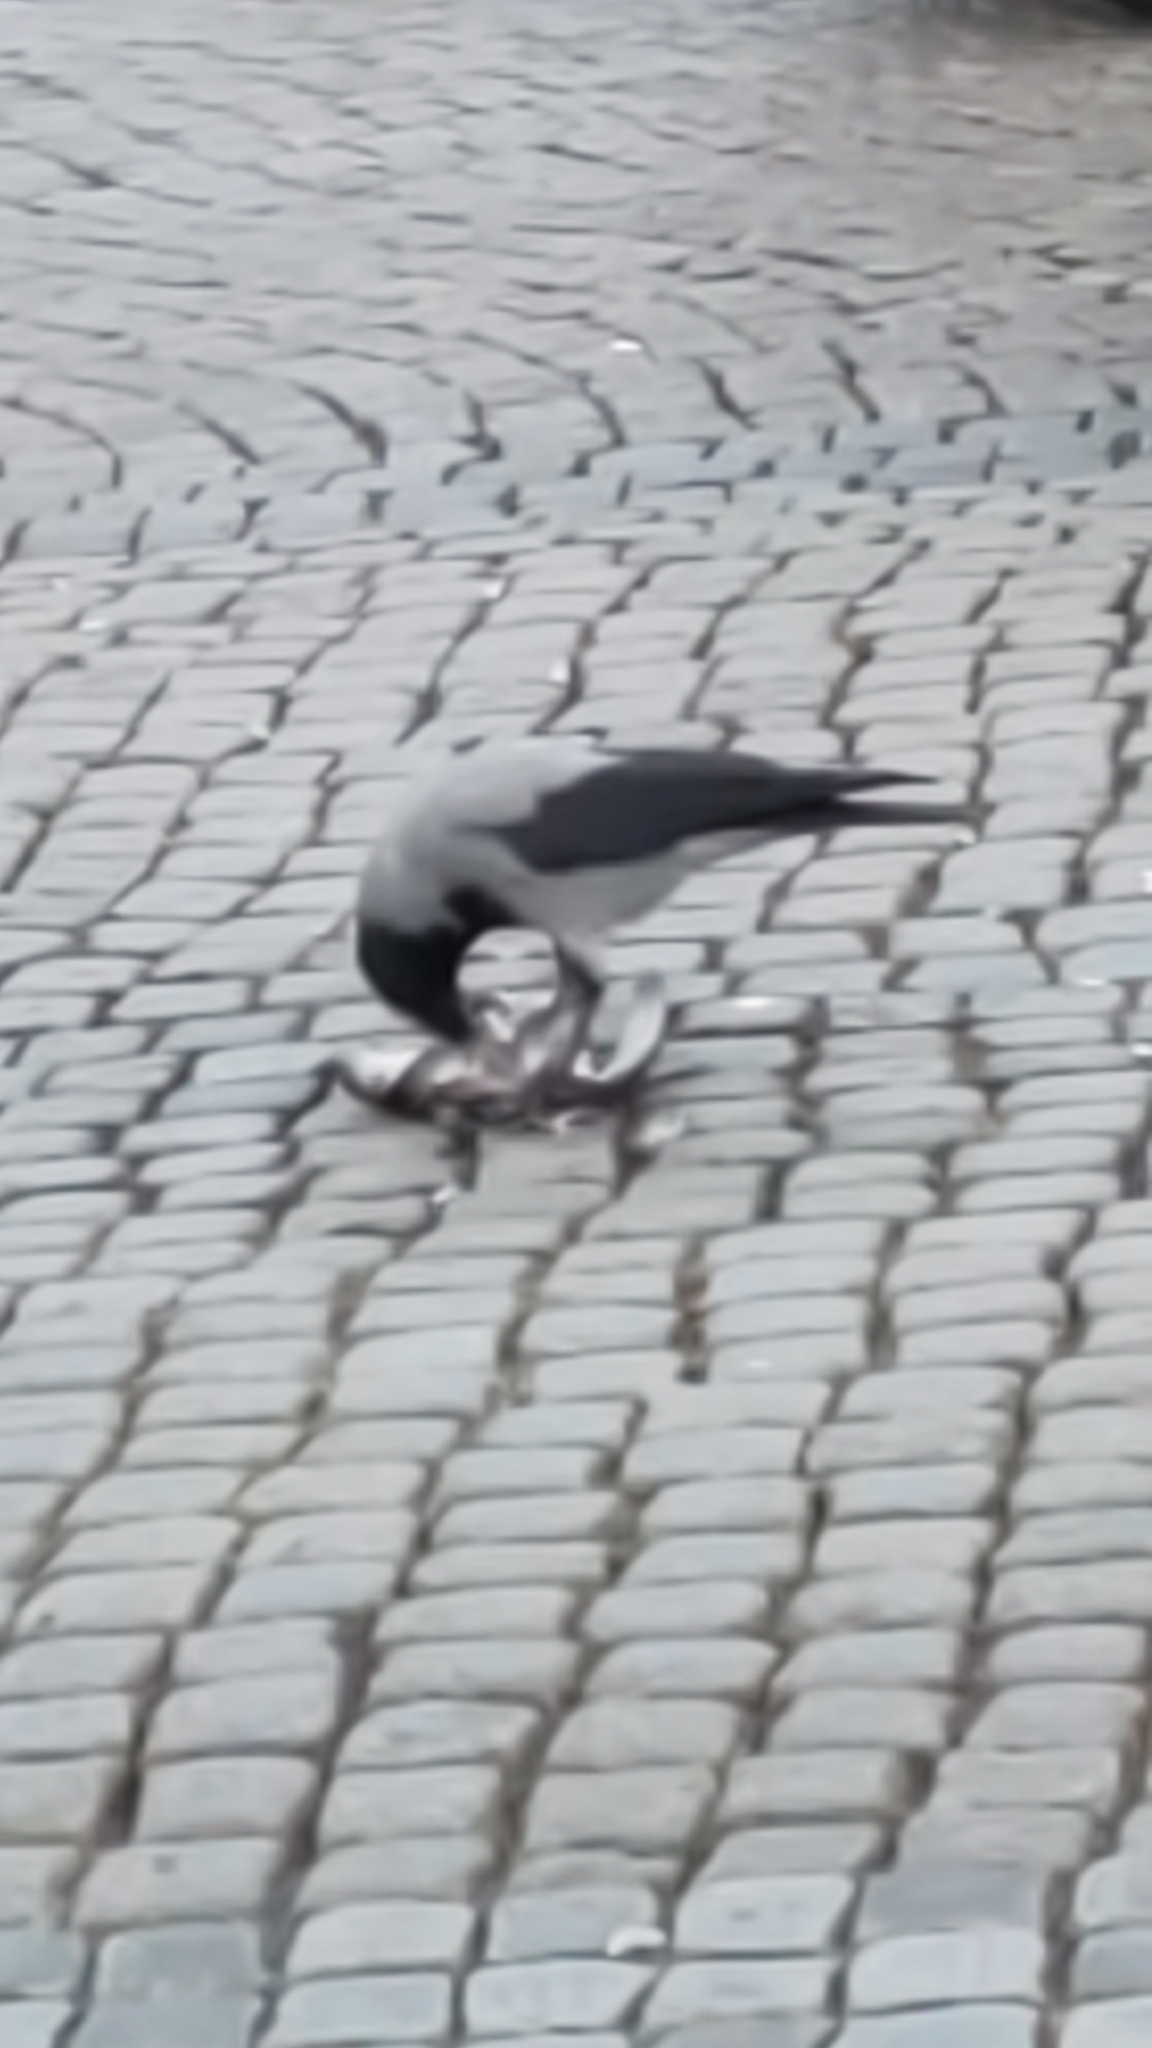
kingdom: Animalia
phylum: Chordata
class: Aves
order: Passeriformes
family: Corvidae
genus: Corvus
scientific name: Corvus cornix
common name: Hooded crow
